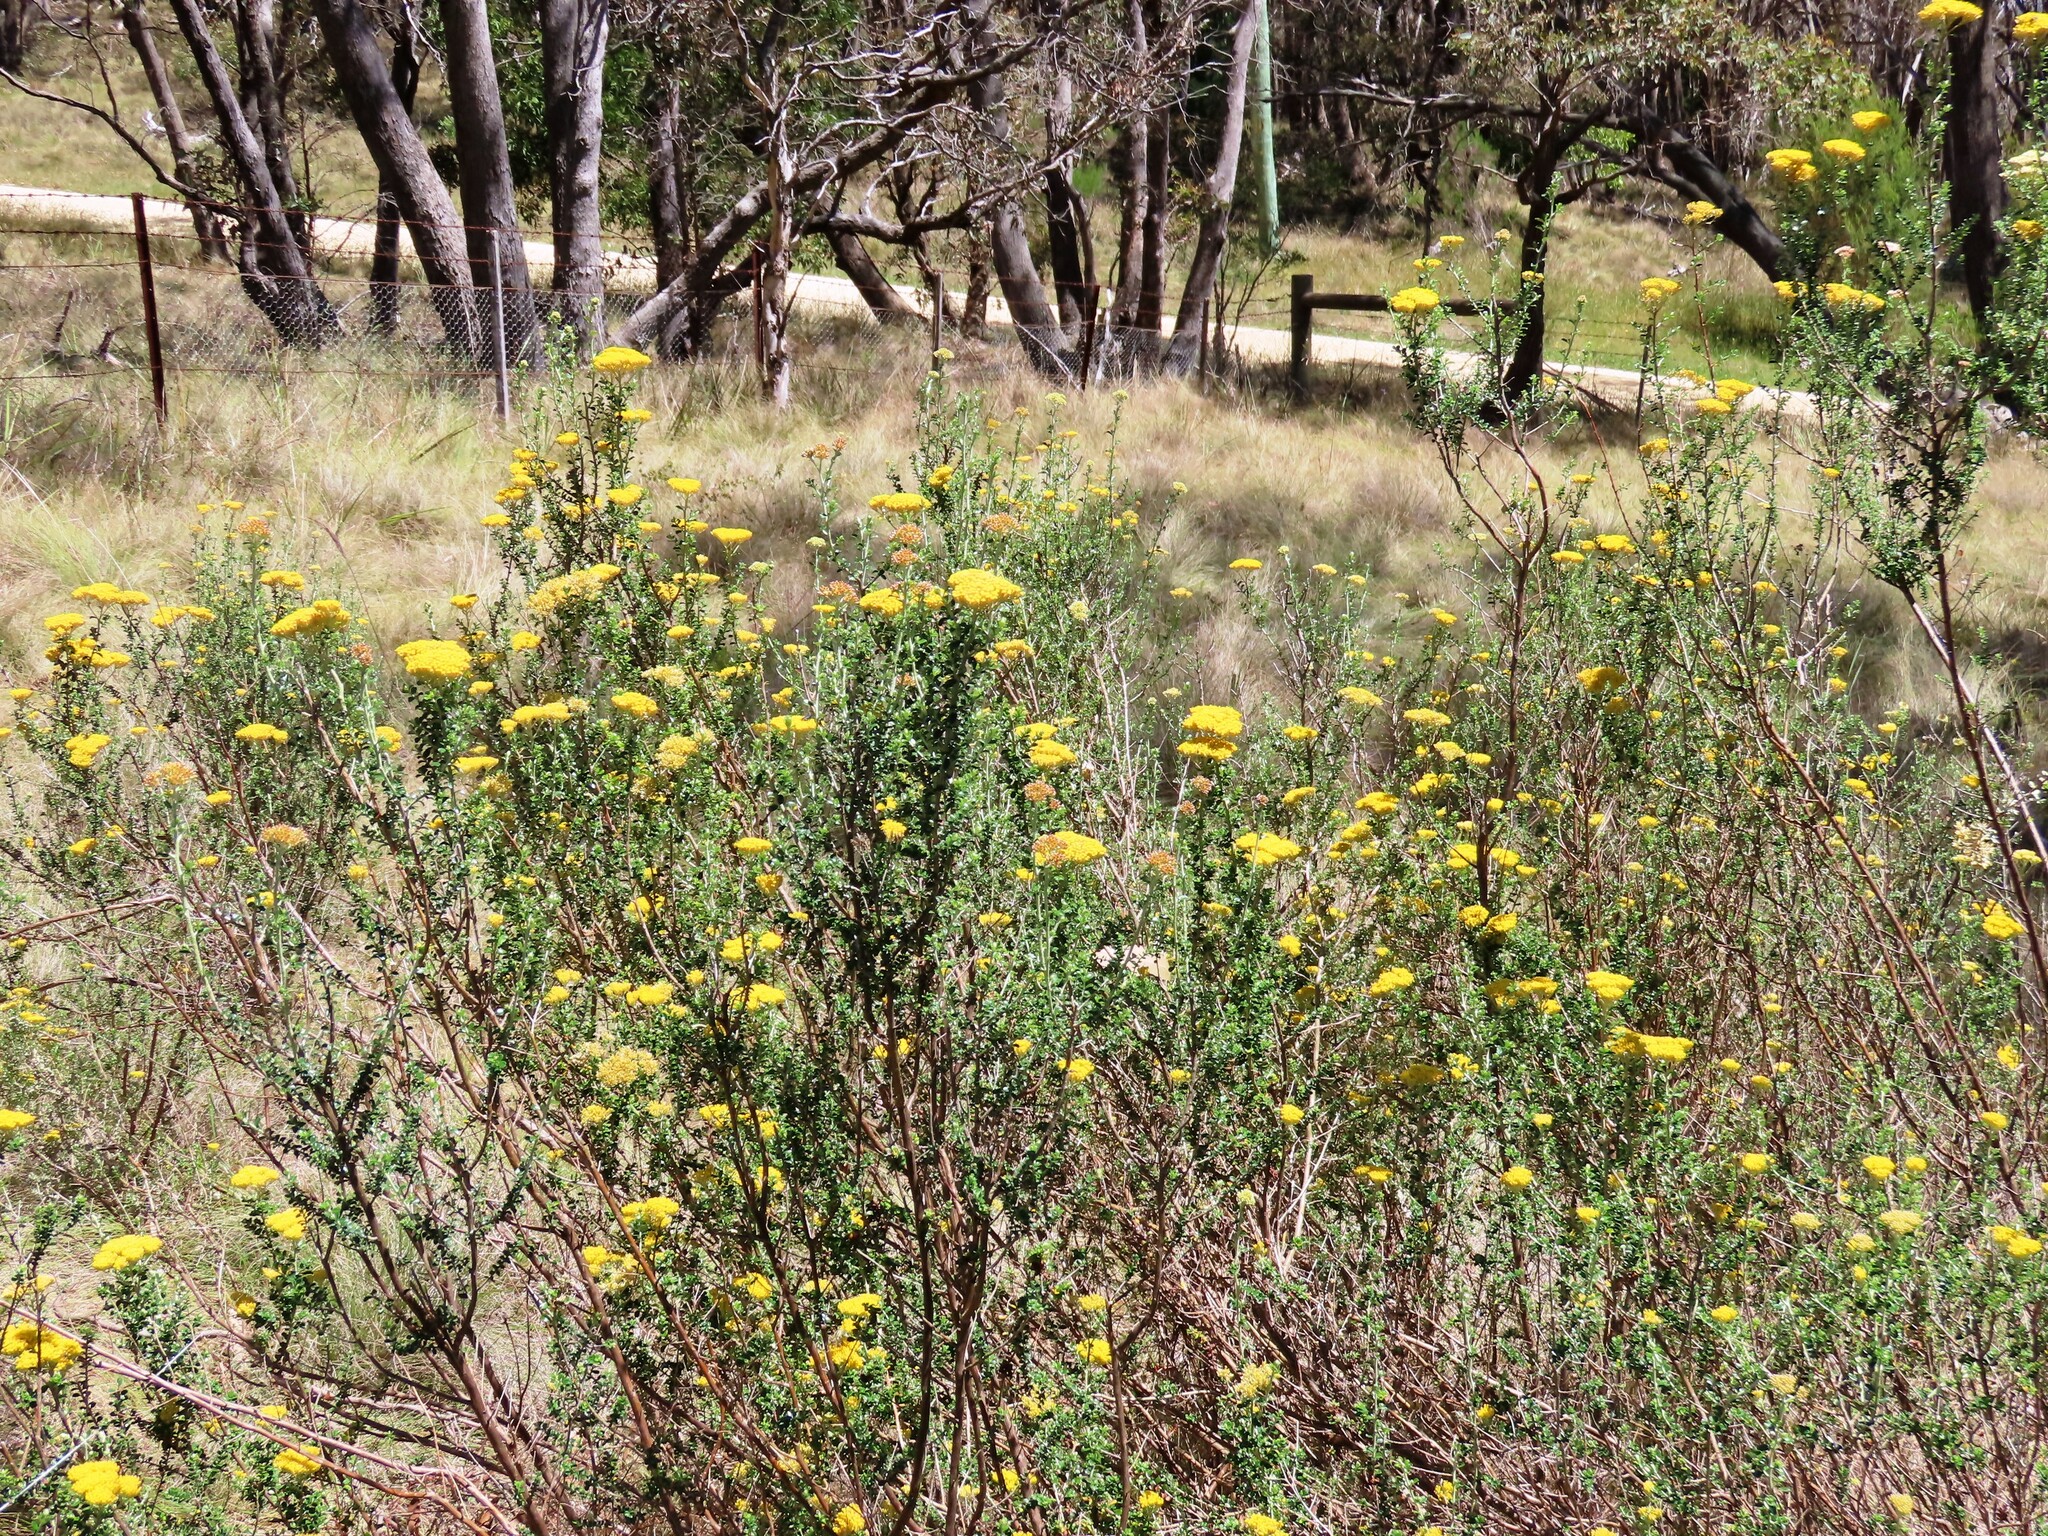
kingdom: Plantae
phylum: Tracheophyta
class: Magnoliopsida
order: Asterales
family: Asteraceae
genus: Ozothamnus
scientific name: Ozothamnus obcordatus
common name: Grey everlasting
